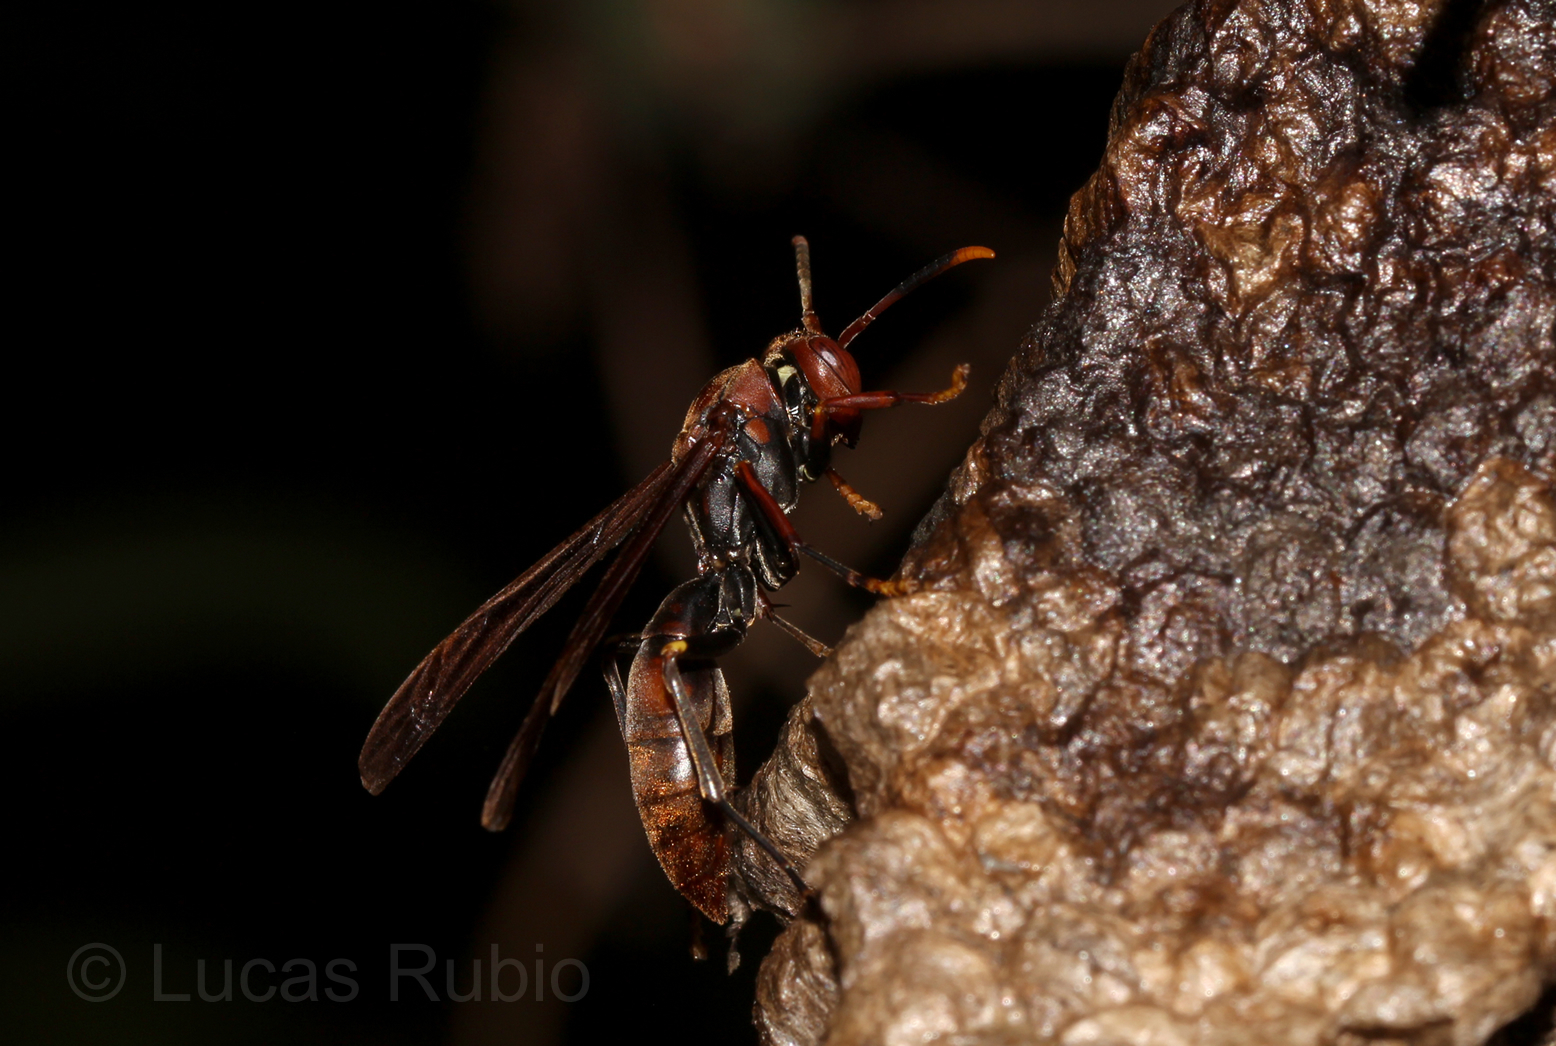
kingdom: Animalia
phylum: Arthropoda
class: Insecta
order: Hymenoptera
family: Pompilidae
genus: Aphanilopterus
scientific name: Aphanilopterus
